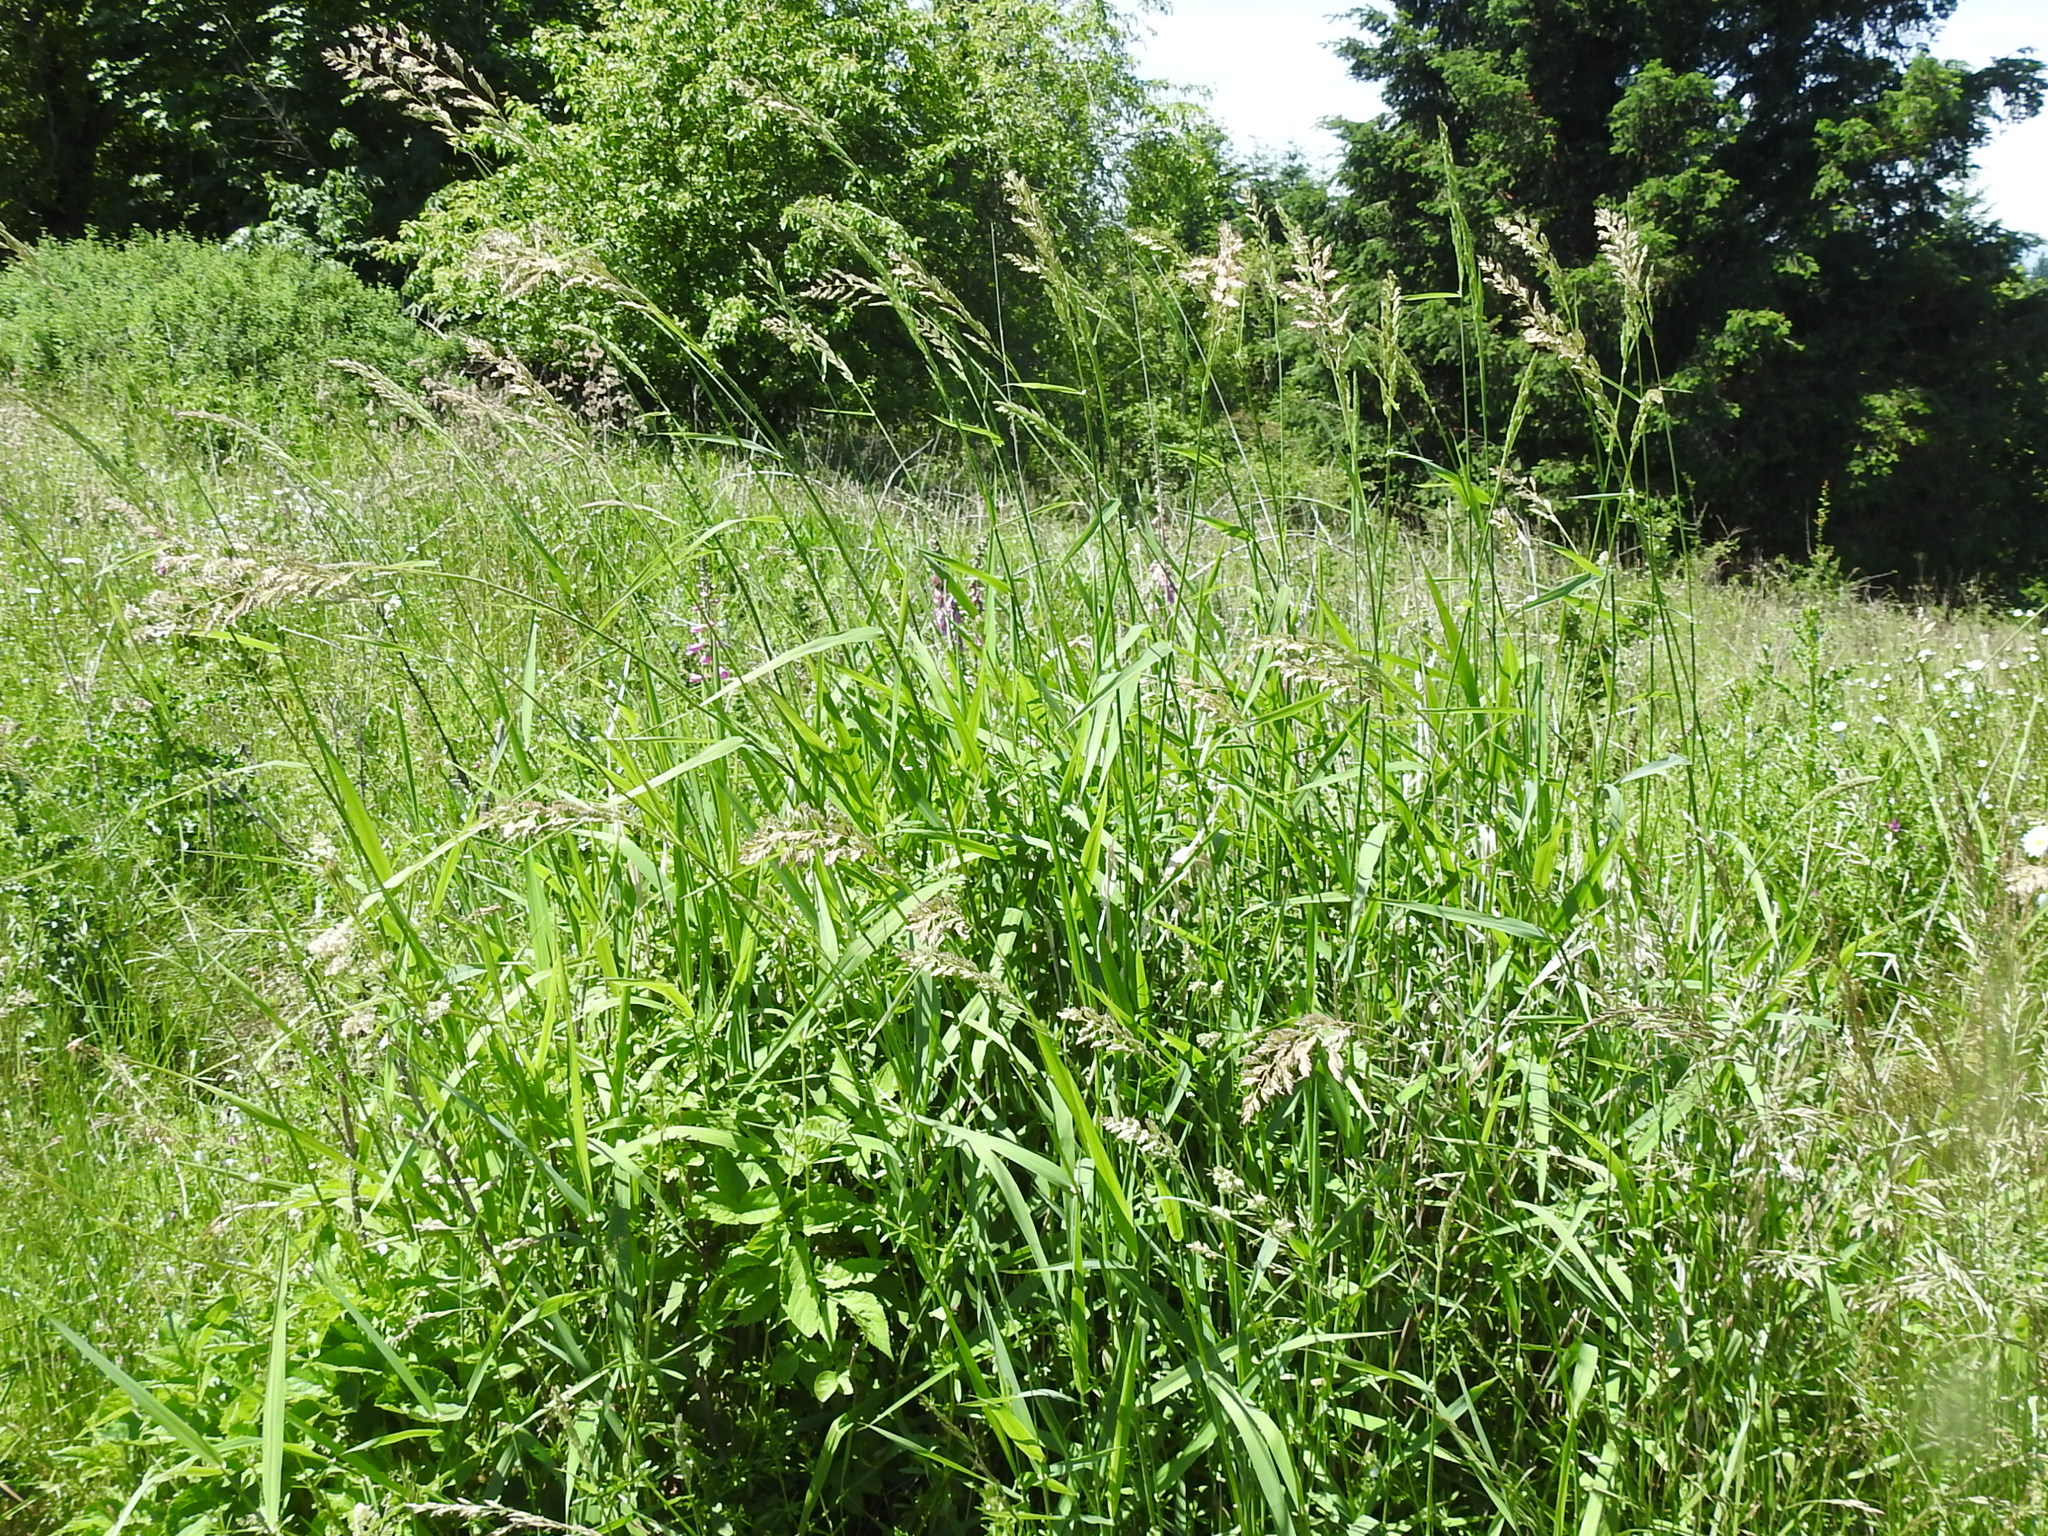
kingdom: Plantae
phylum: Tracheophyta
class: Liliopsida
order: Poales
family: Poaceae
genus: Phalaris
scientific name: Phalaris arundinacea
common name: Reed canary-grass
